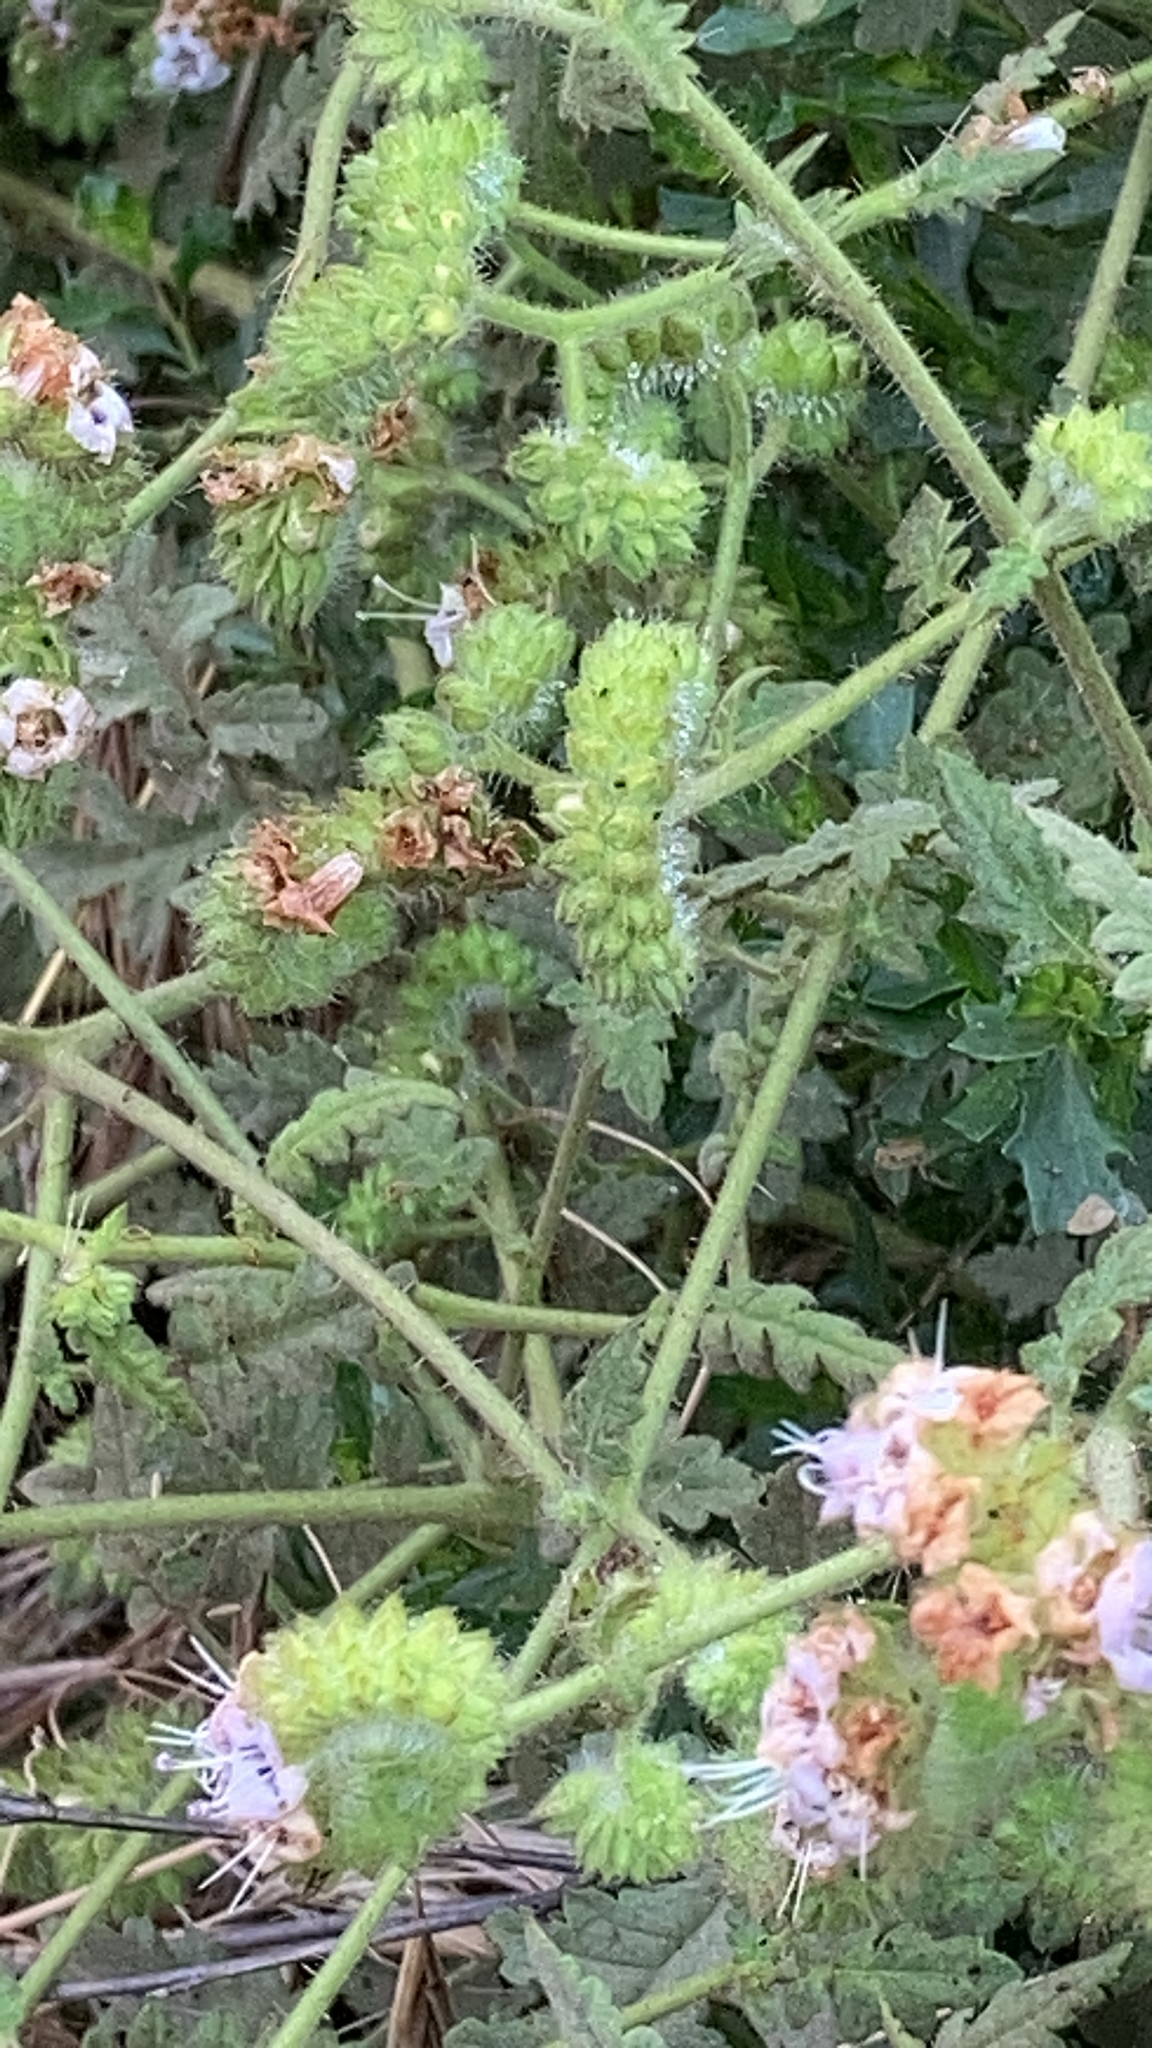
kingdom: Plantae
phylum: Tracheophyta
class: Magnoliopsida
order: Boraginales
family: Hydrophyllaceae
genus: Phacelia
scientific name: Phacelia ramosissima
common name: Branching phacelia
